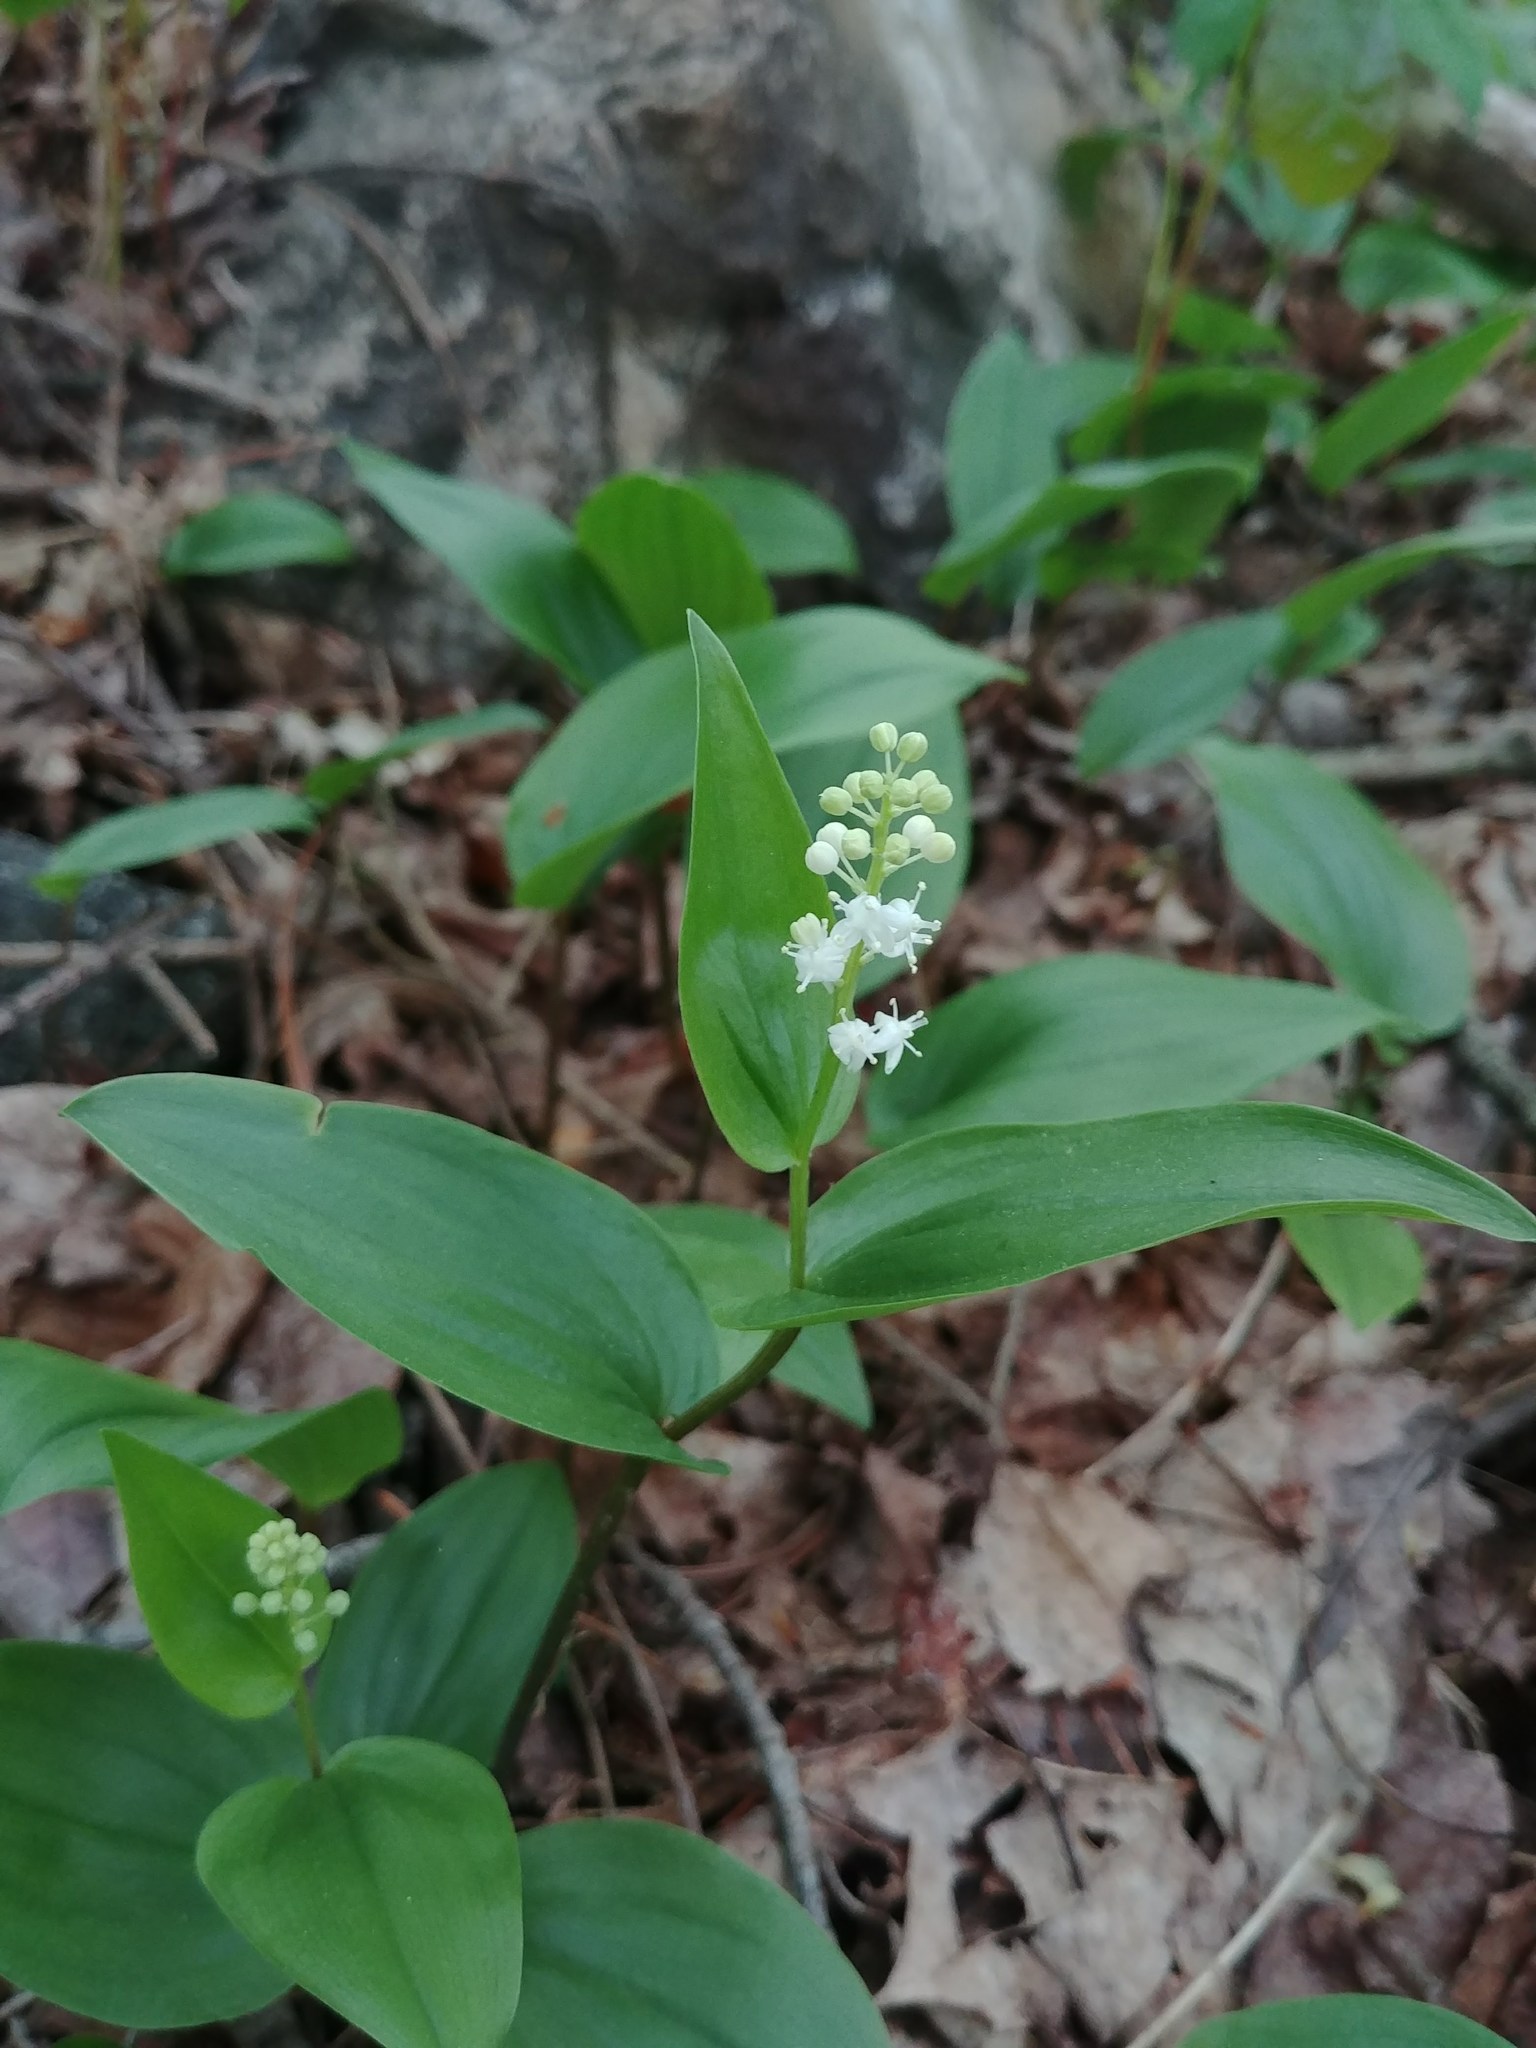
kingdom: Plantae
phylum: Tracheophyta
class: Liliopsida
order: Asparagales
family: Asparagaceae
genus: Maianthemum
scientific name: Maianthemum canadense
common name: False lily-of-the-valley
